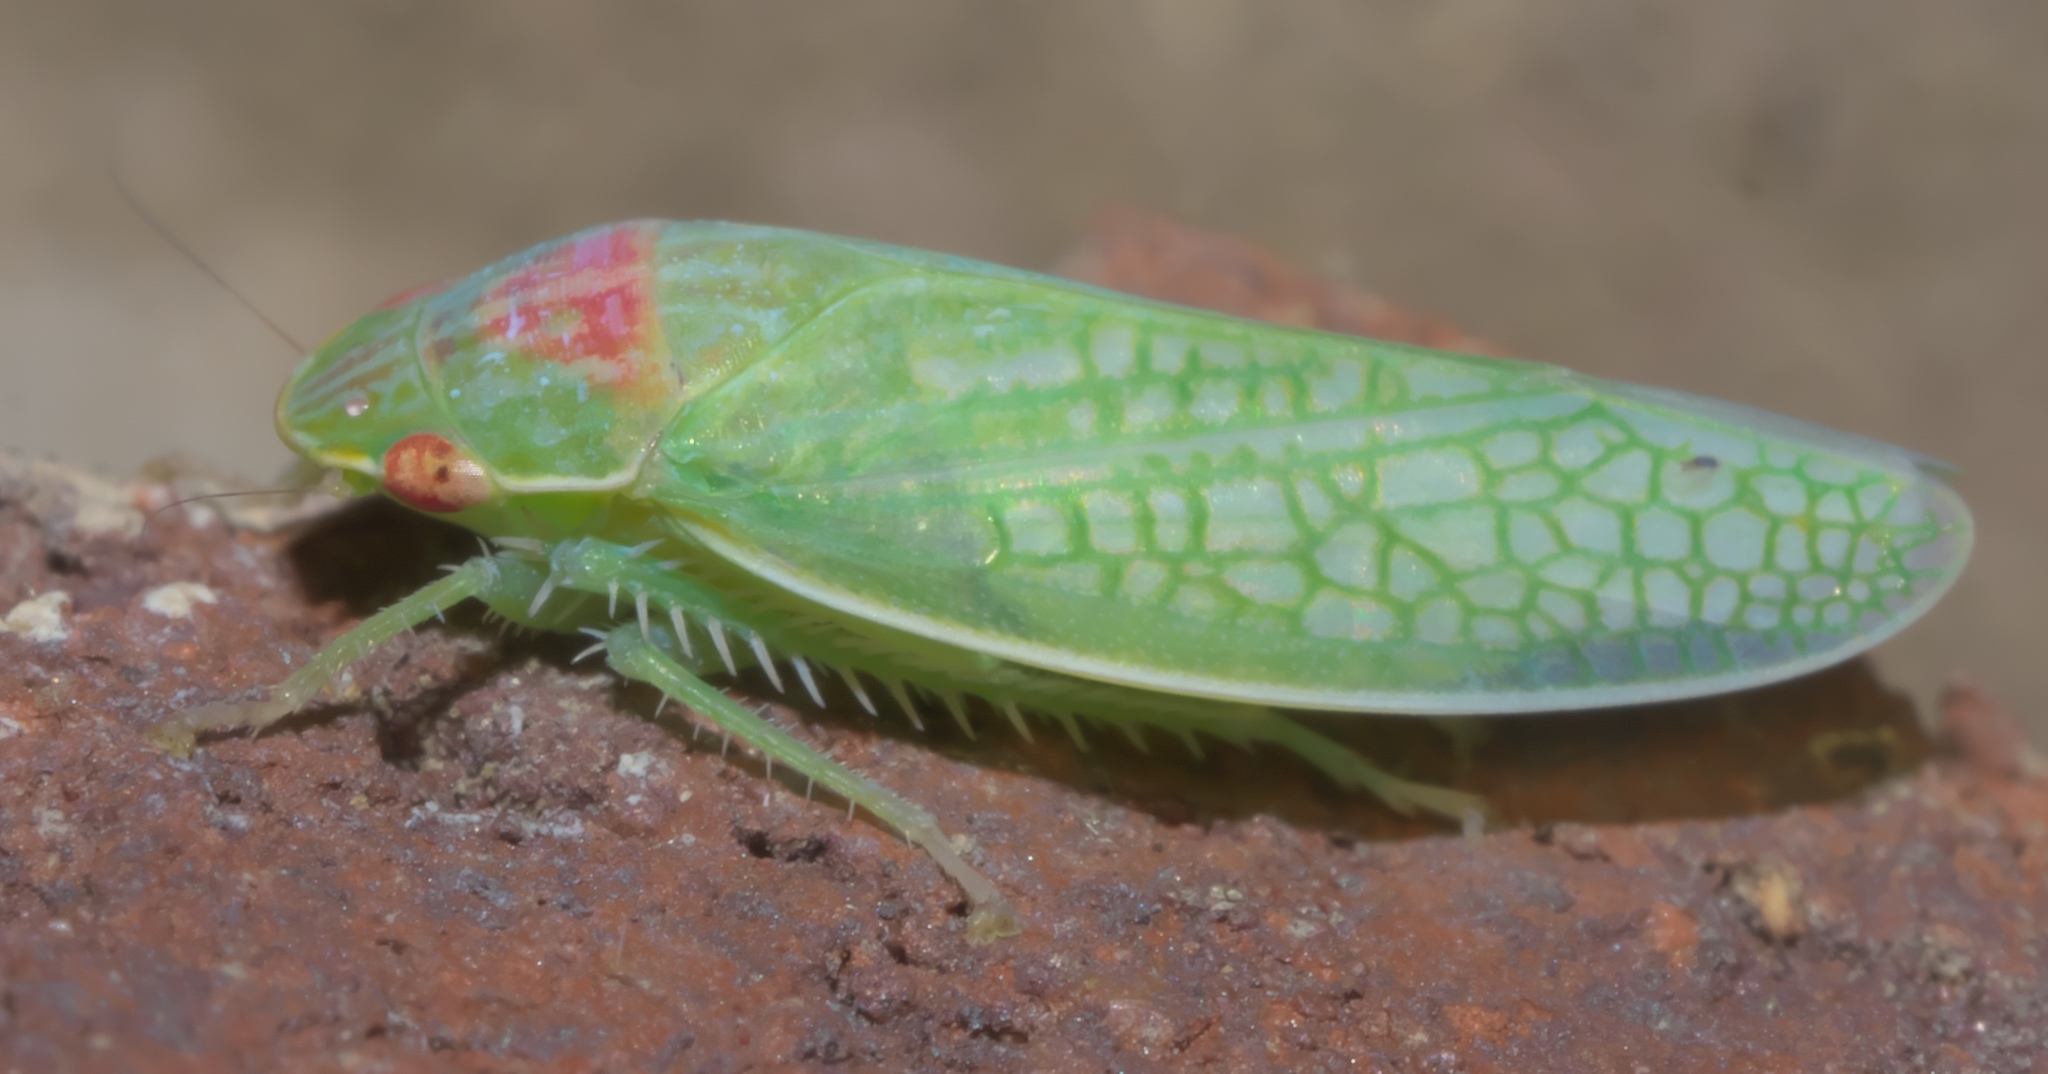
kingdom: Animalia
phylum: Arthropoda
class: Insecta
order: Hemiptera
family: Cicadellidae
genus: Gyponana
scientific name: Gyponana octolineata
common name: Eight-lined leafhopper
